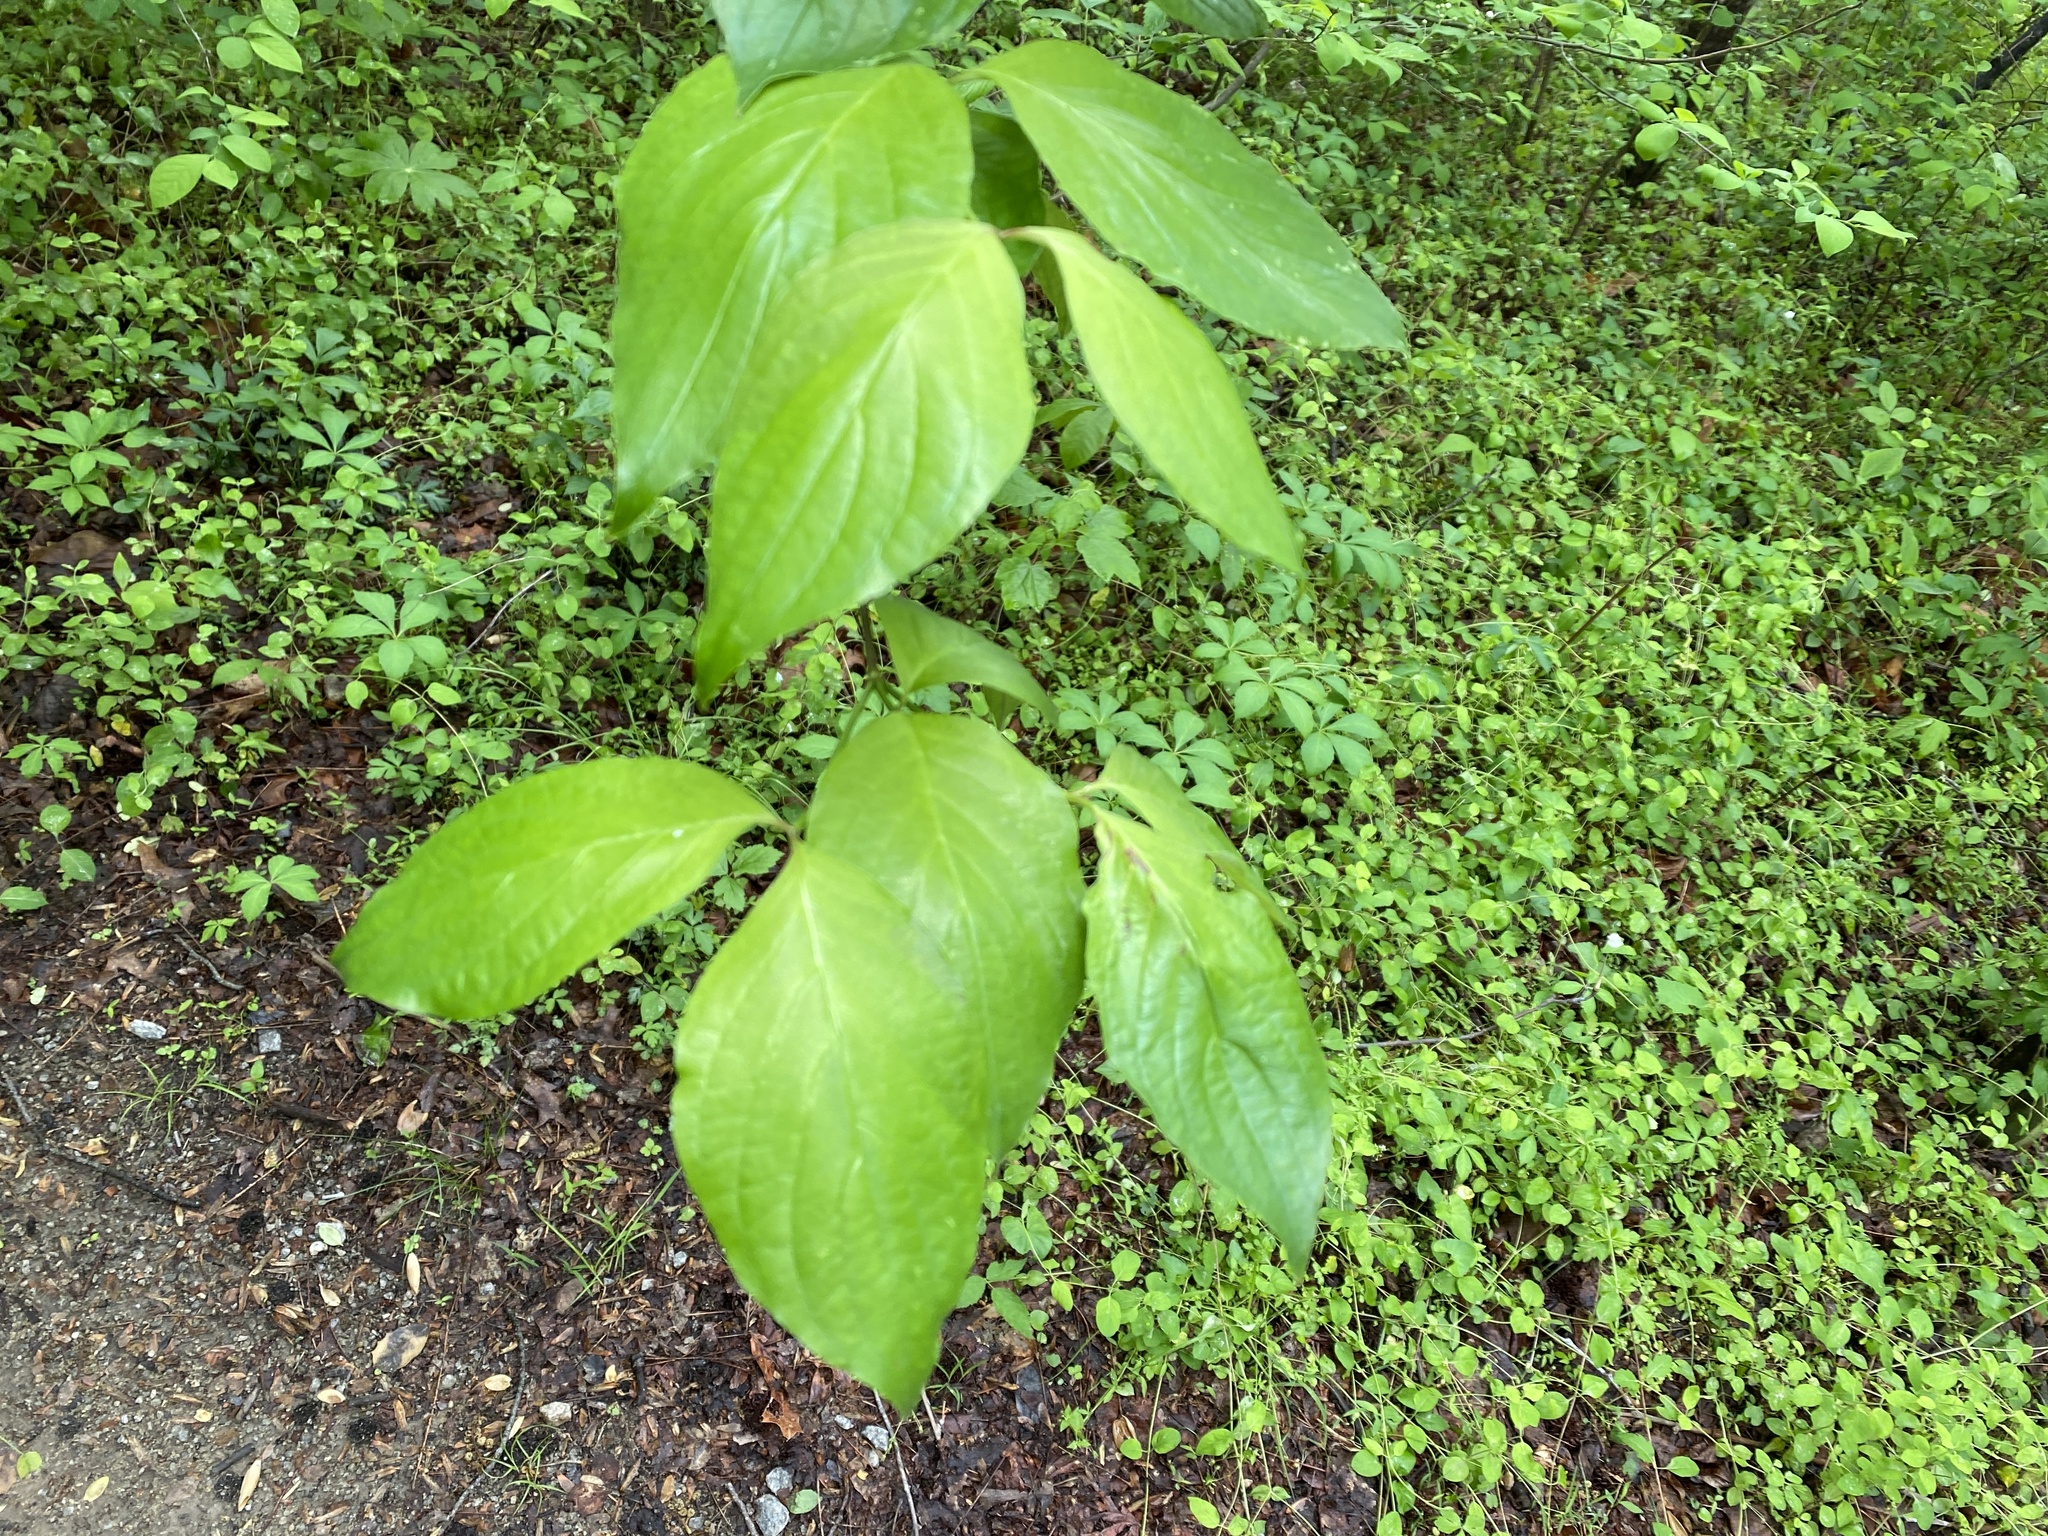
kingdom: Plantae
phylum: Tracheophyta
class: Magnoliopsida
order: Cornales
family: Cornaceae
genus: Cornus
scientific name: Cornus florida
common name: Flowering dogwood
